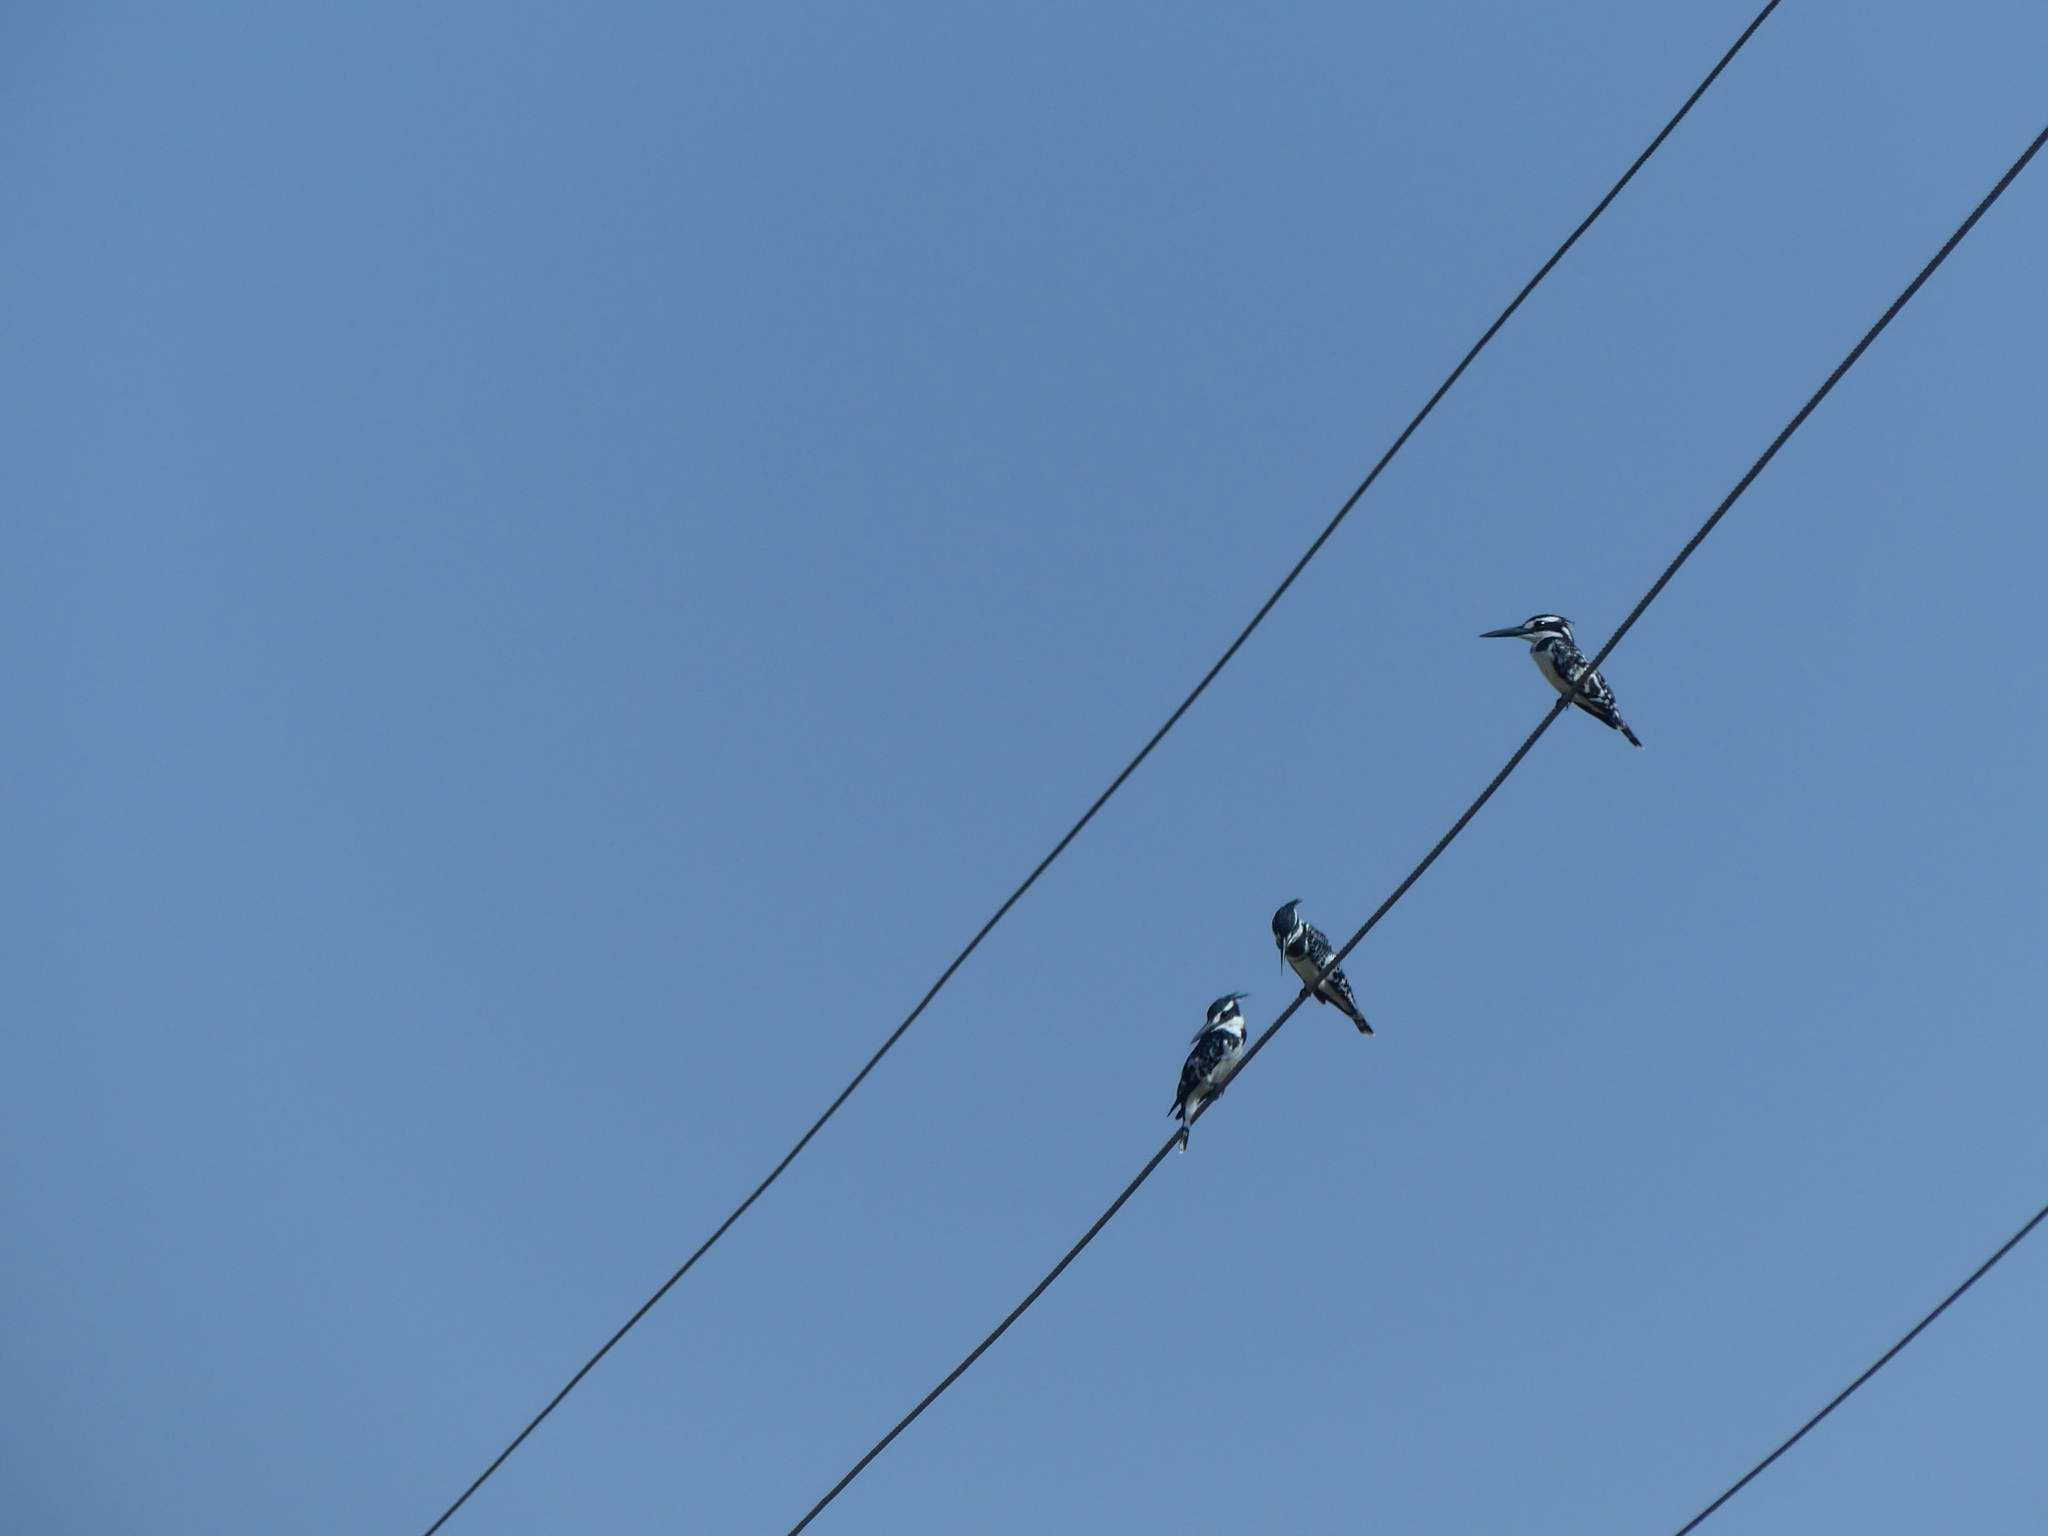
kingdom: Animalia
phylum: Chordata
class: Aves
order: Coraciiformes
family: Alcedinidae
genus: Ceryle
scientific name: Ceryle rudis
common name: Pied kingfisher
